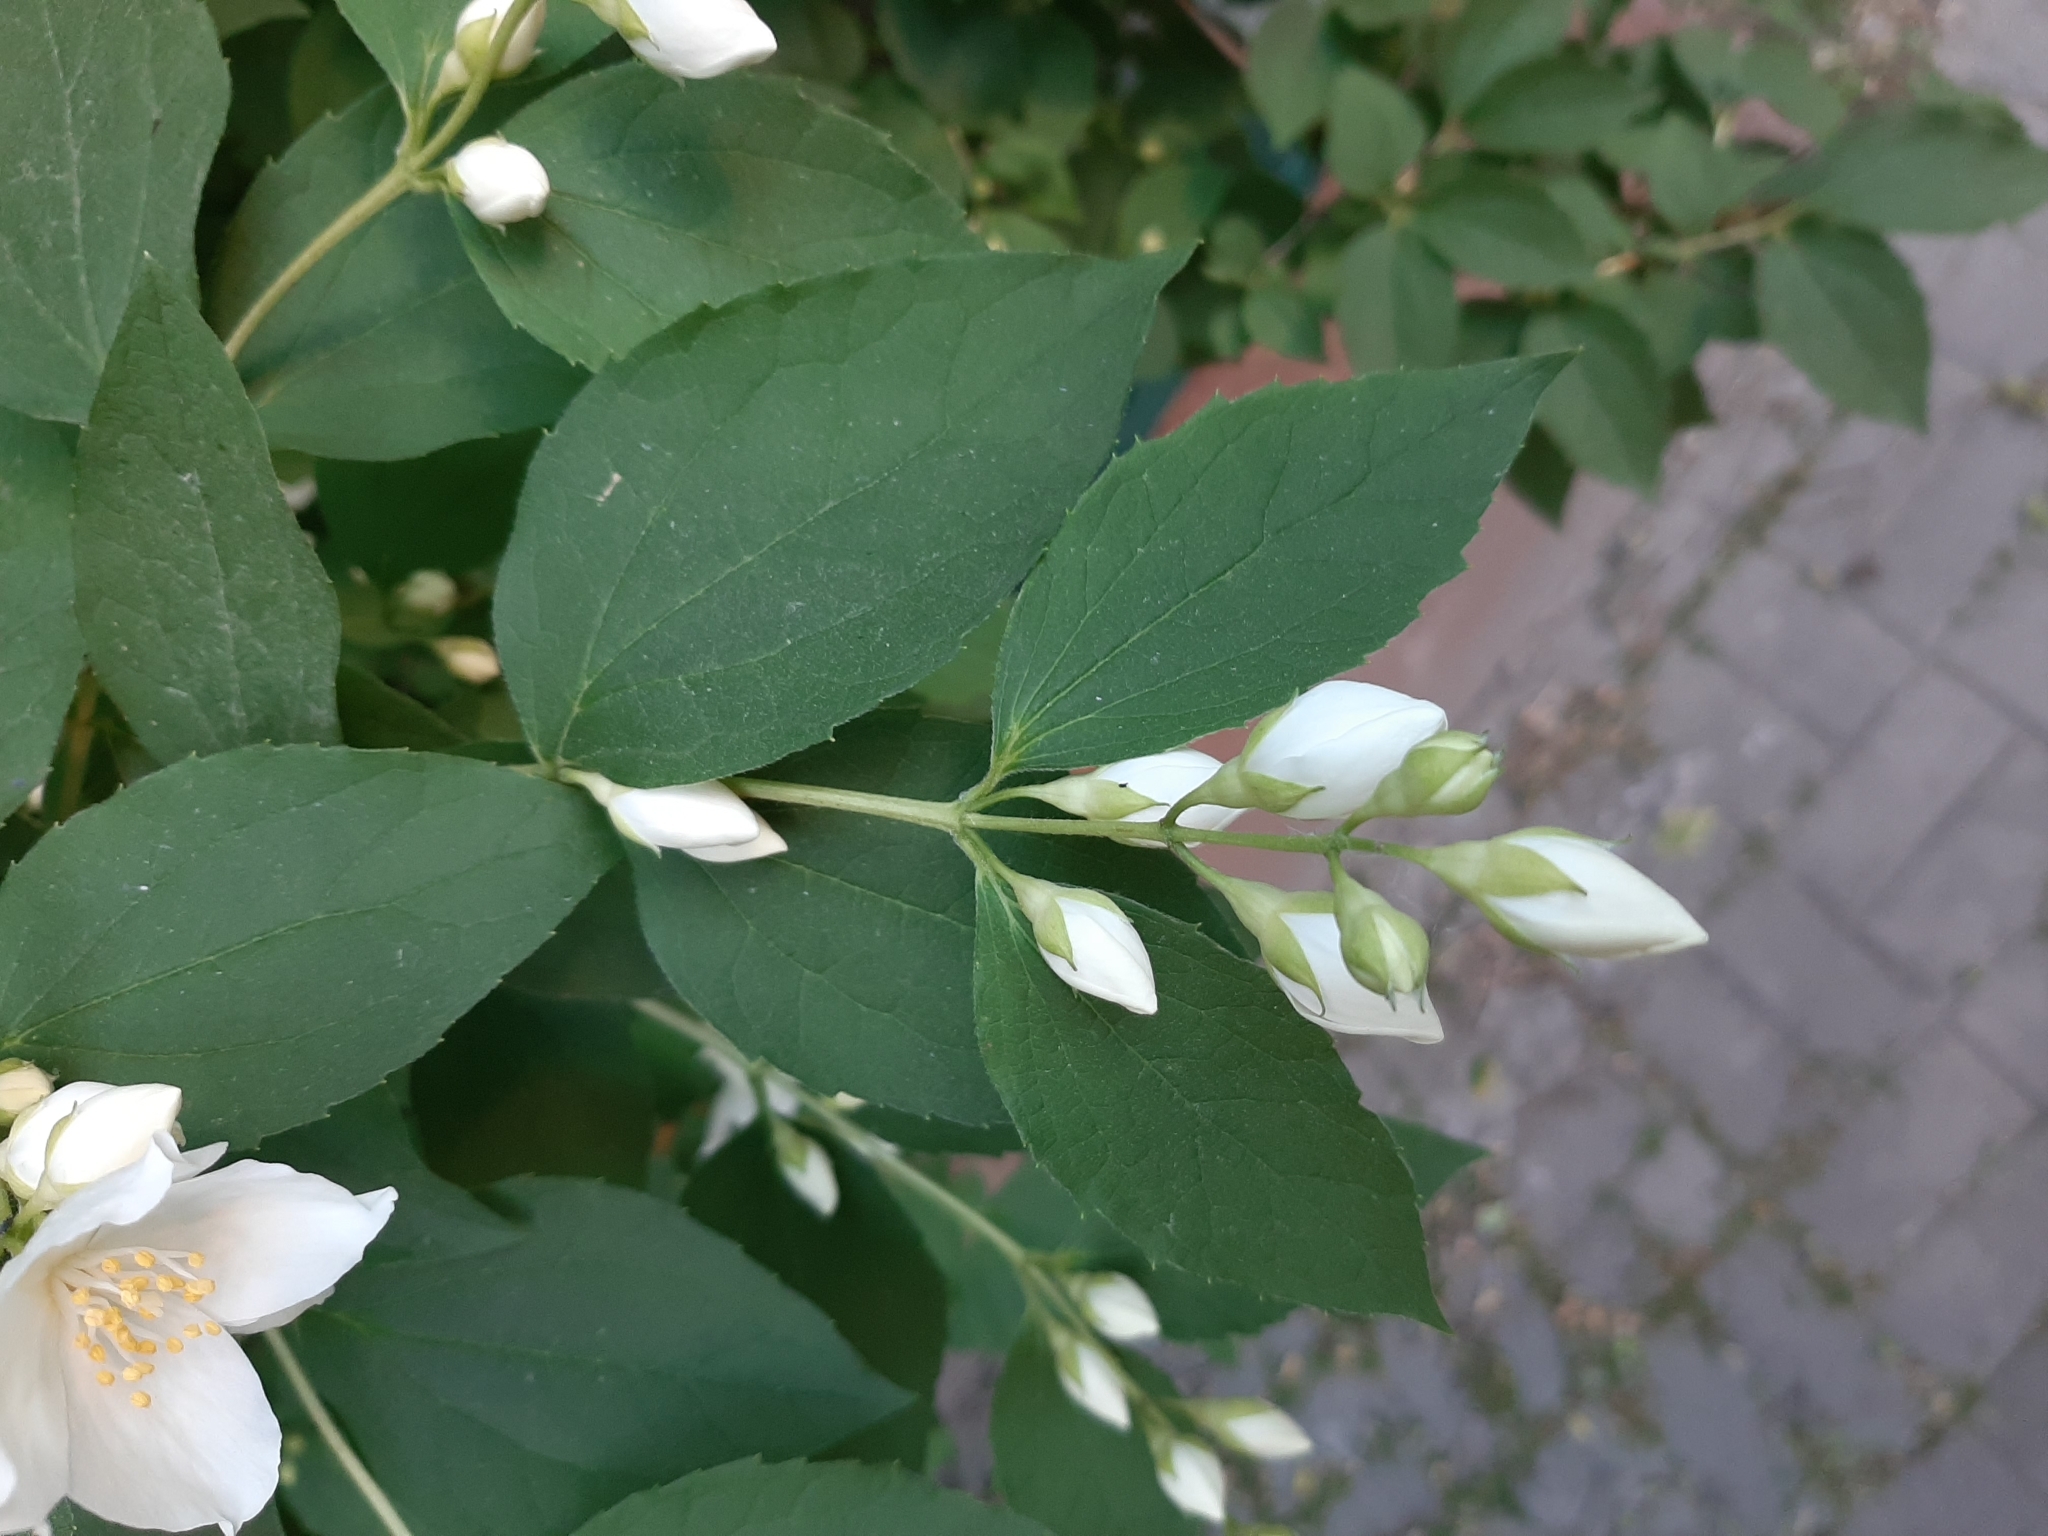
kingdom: Plantae
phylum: Tracheophyta
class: Magnoliopsida
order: Cornales
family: Hydrangeaceae
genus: Philadelphus
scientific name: Philadelphus coronarius
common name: Mock orange
